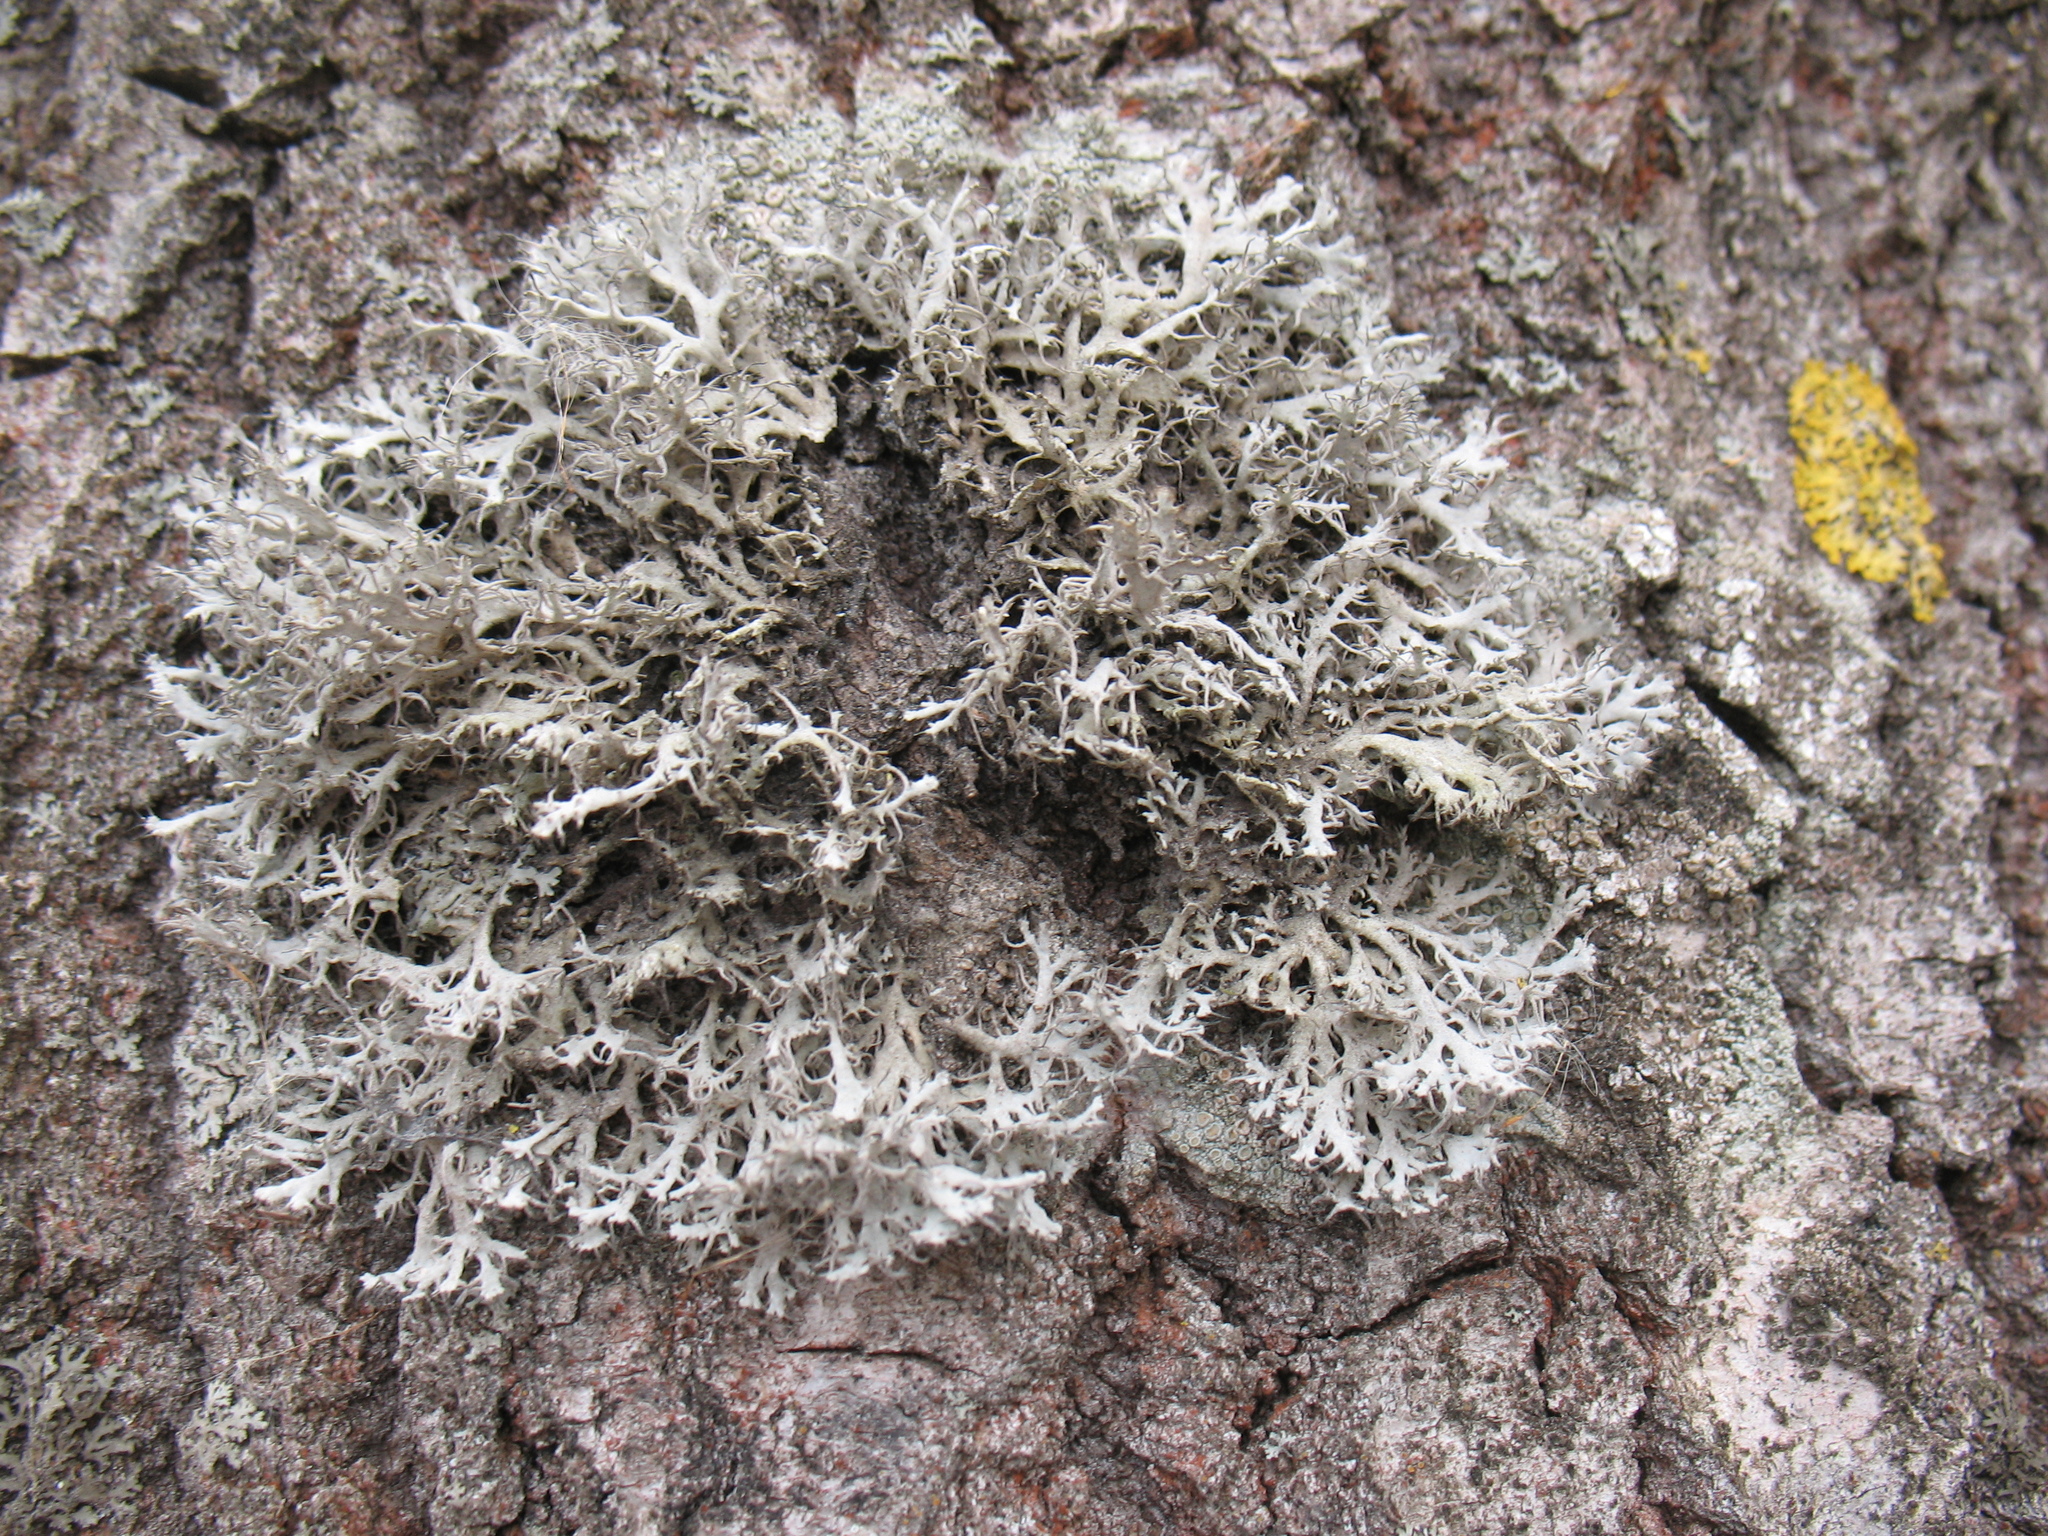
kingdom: Fungi
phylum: Ascomycota
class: Lecanoromycetes
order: Caliciales
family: Physciaceae
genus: Anaptychia
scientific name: Anaptychia ciliaris
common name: Great ciliated lichen
